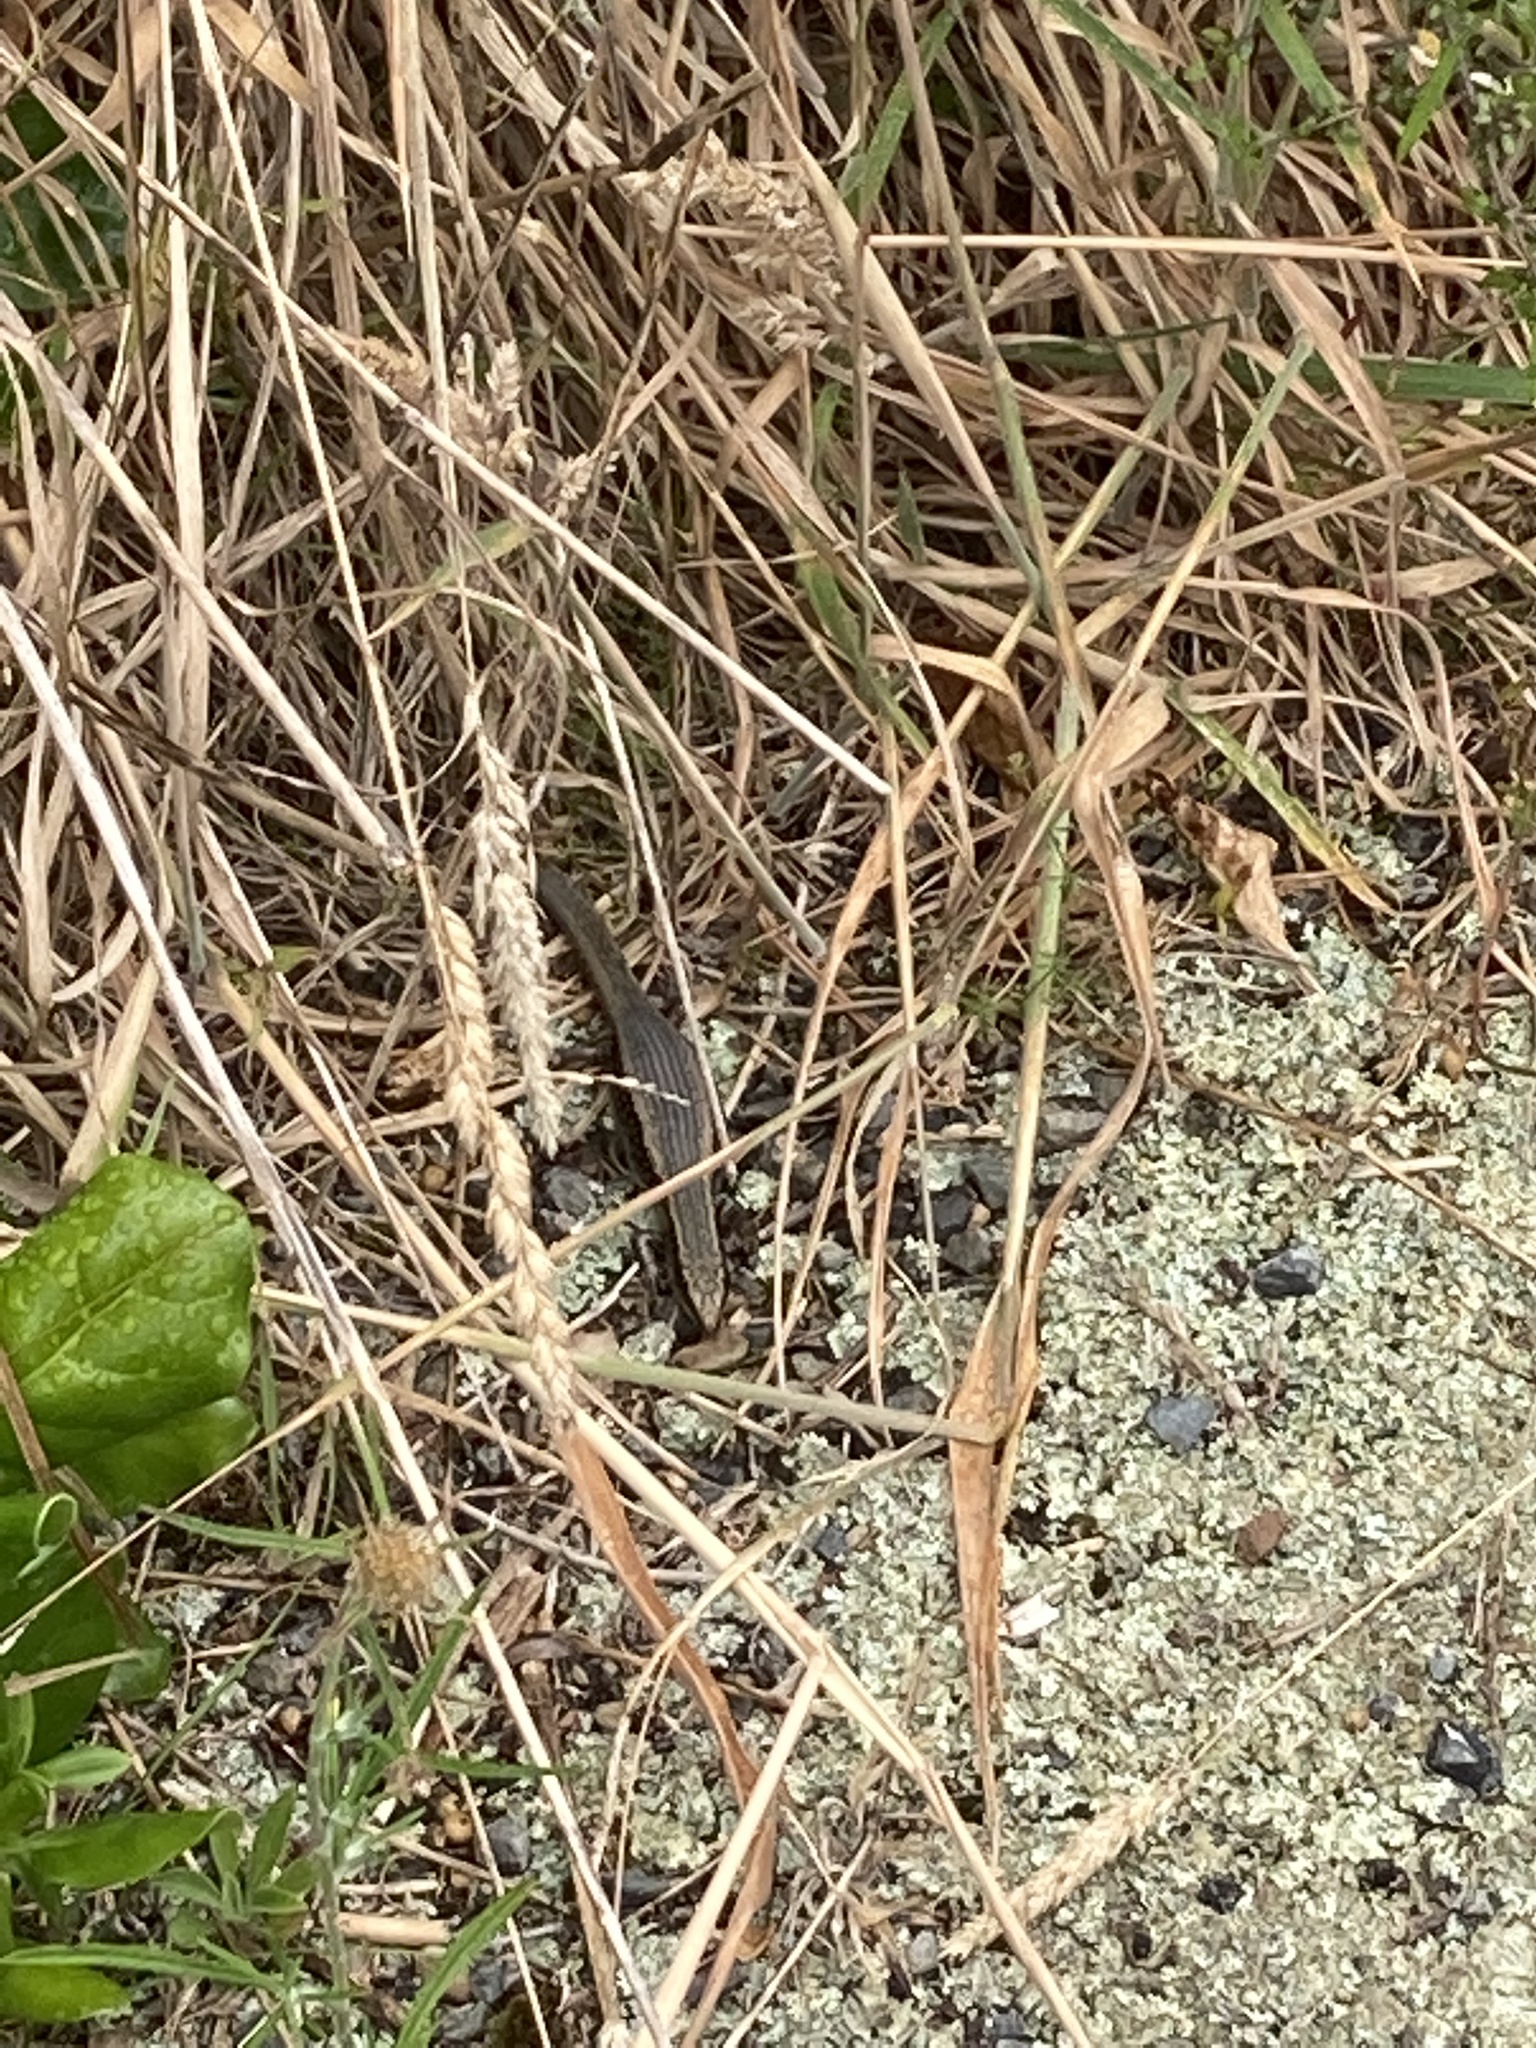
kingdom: Animalia
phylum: Chordata
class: Squamata
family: Scincidae
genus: Oligosoma
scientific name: Oligosoma kokowai
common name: Northern spotted skink
